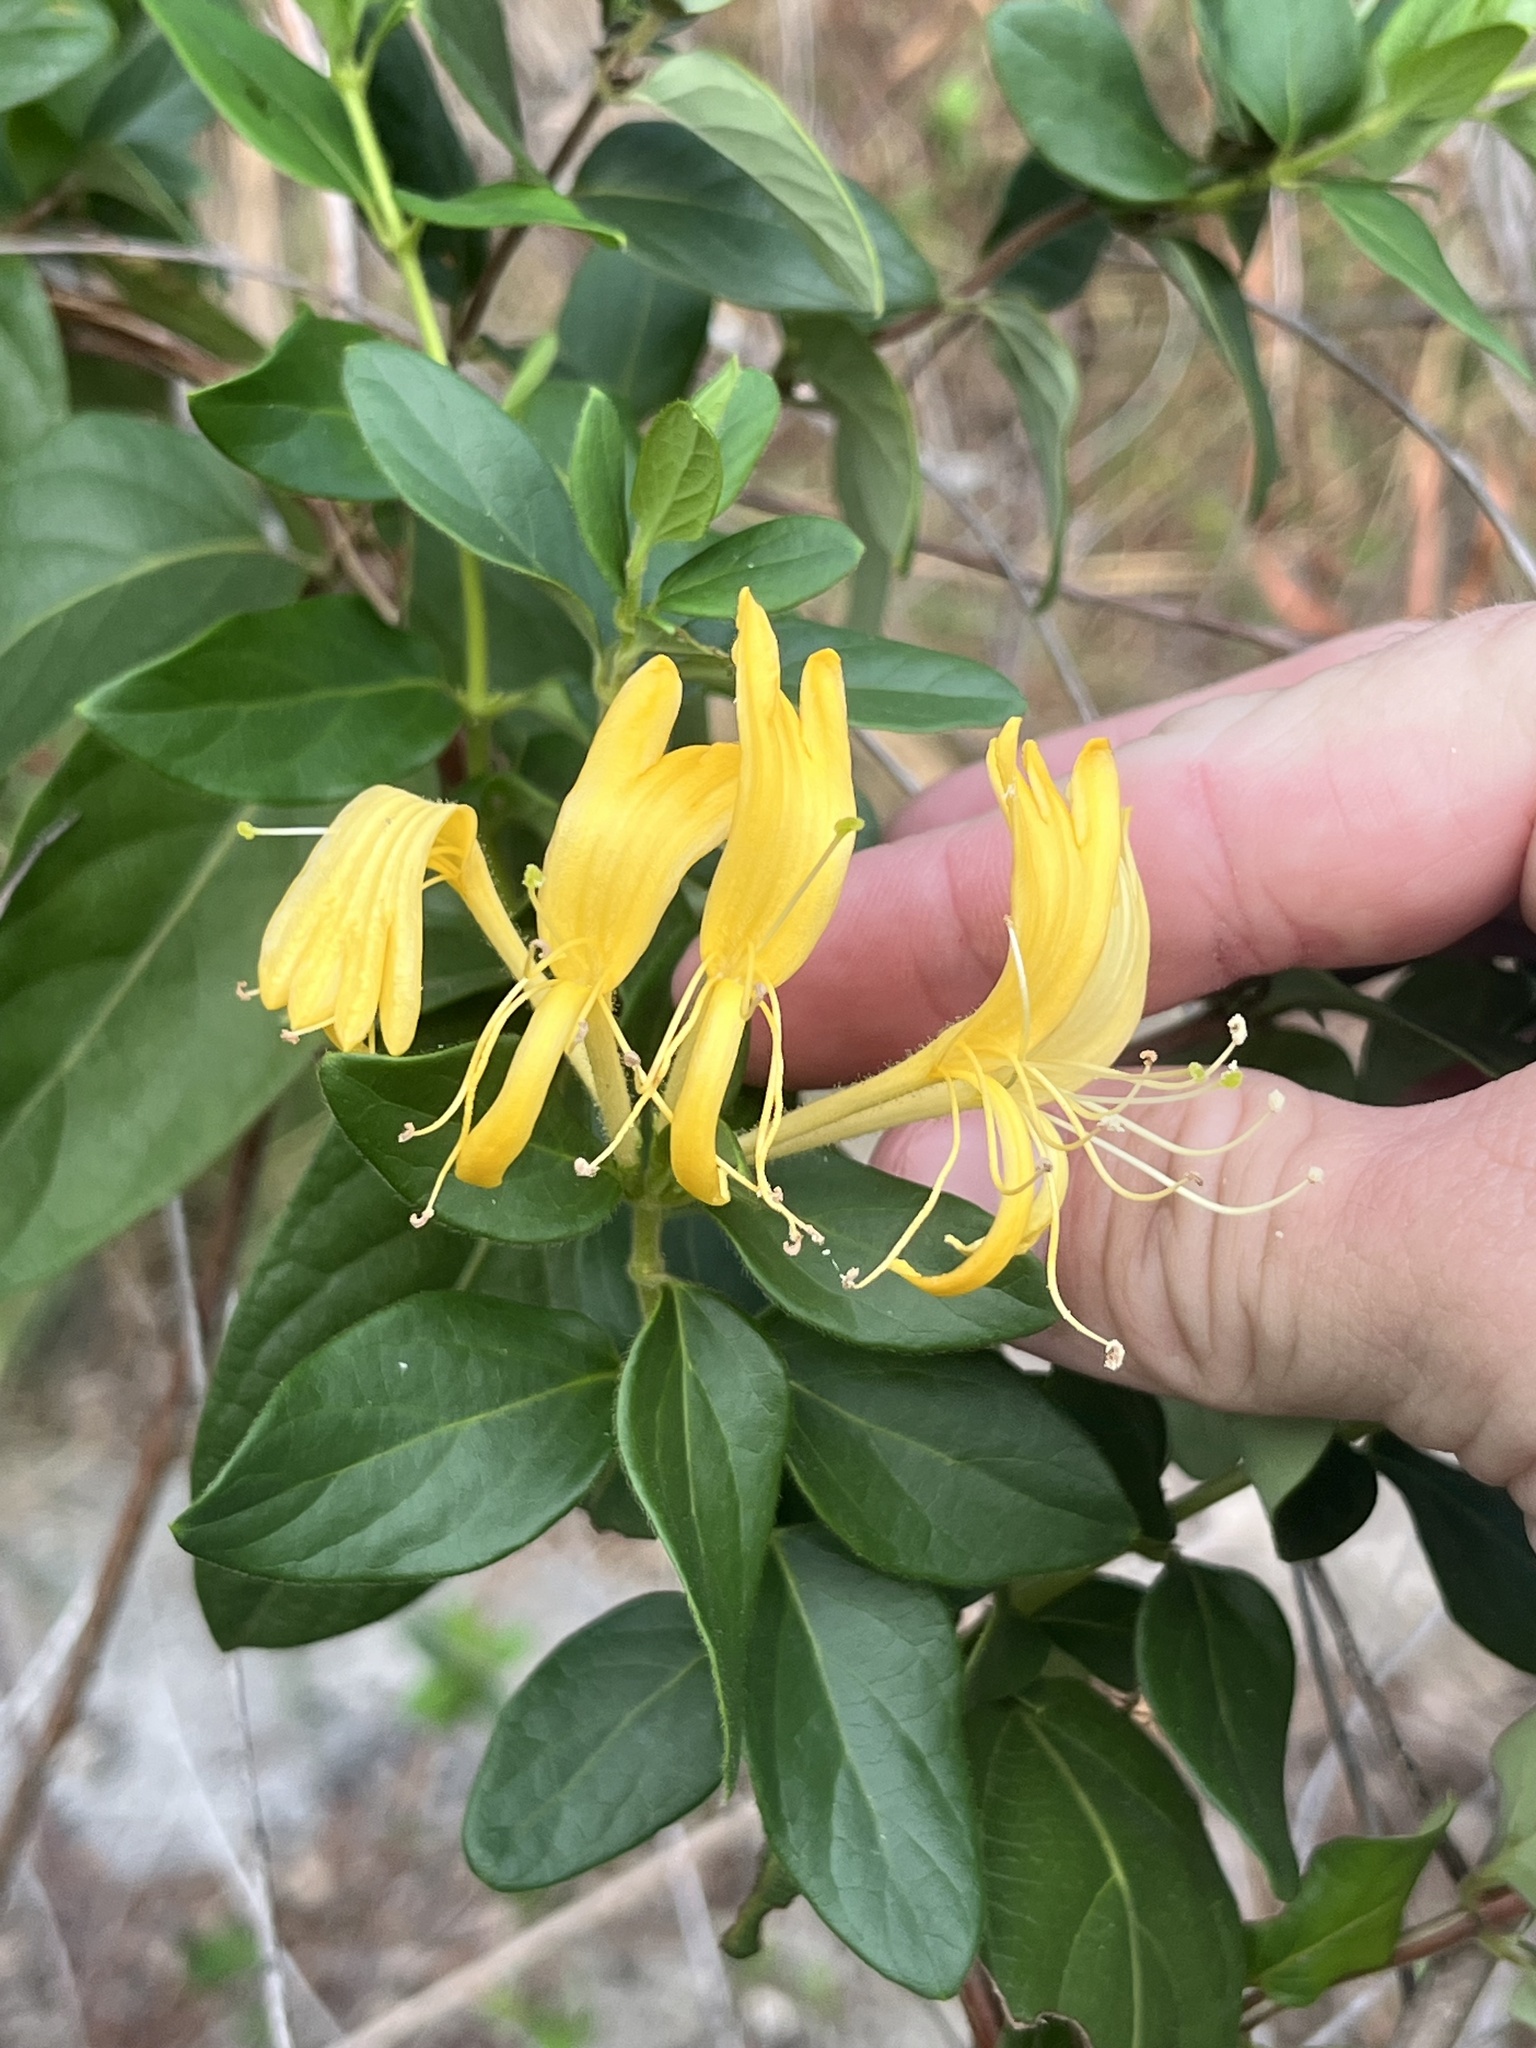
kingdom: Plantae
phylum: Tracheophyta
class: Magnoliopsida
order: Dipsacales
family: Caprifoliaceae
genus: Lonicera
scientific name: Lonicera japonica
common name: Japanese honeysuckle
